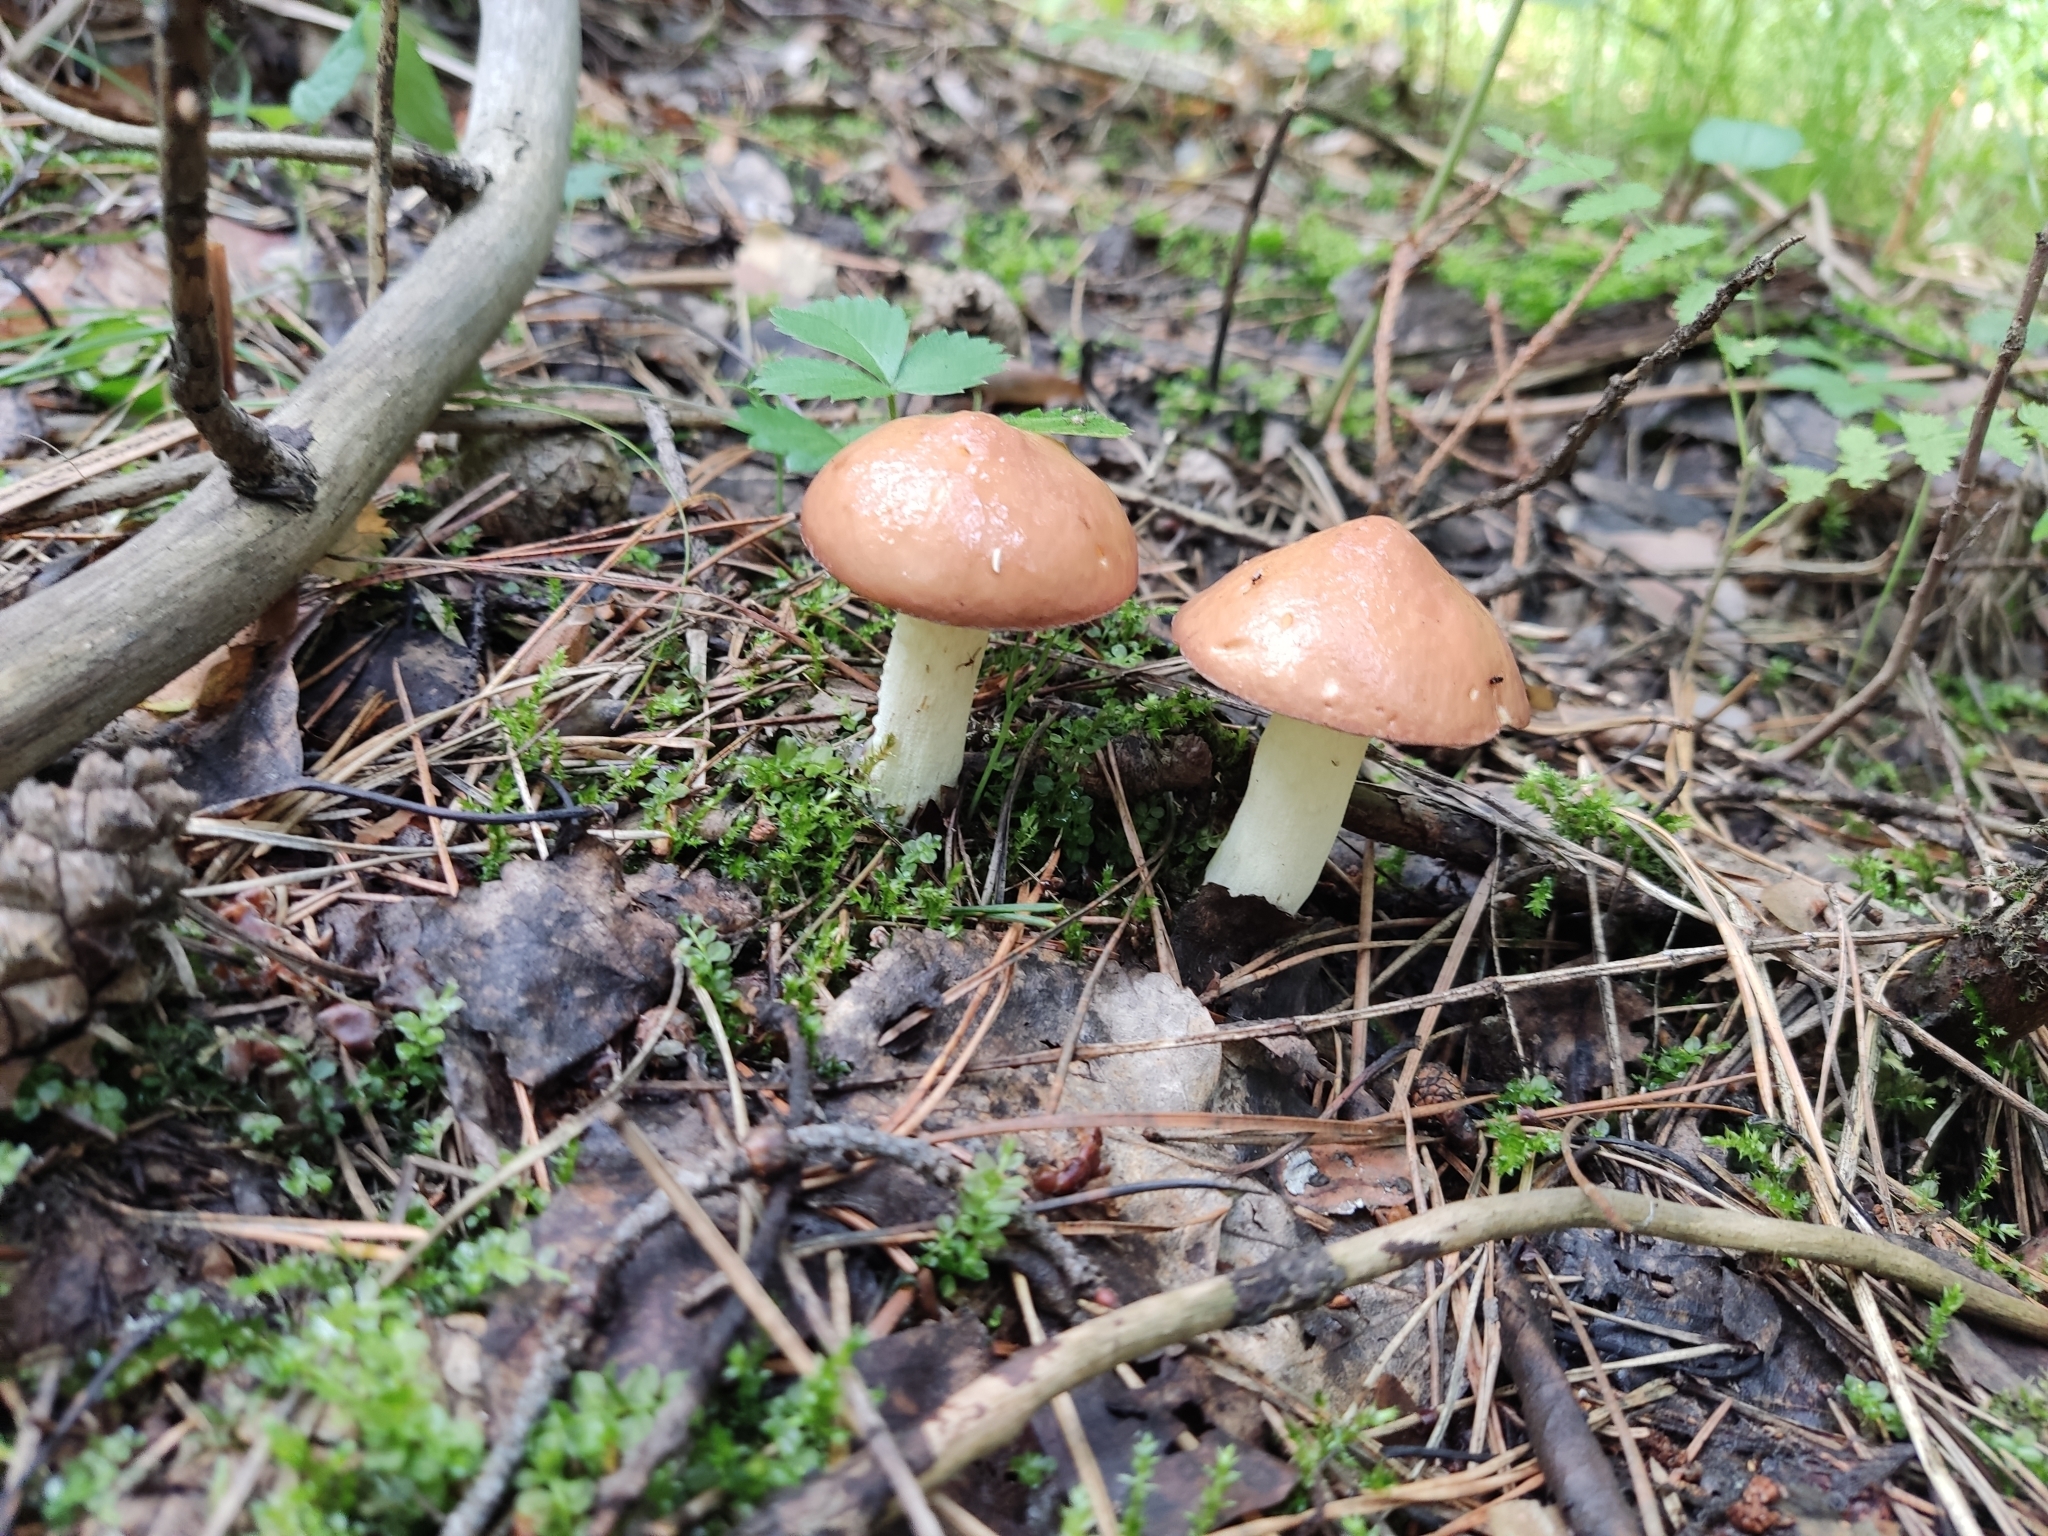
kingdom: Fungi
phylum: Basidiomycota
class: Agaricomycetes
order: Boletales
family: Suillaceae
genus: Suillus
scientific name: Suillus granulatus
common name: Weeping bolete
